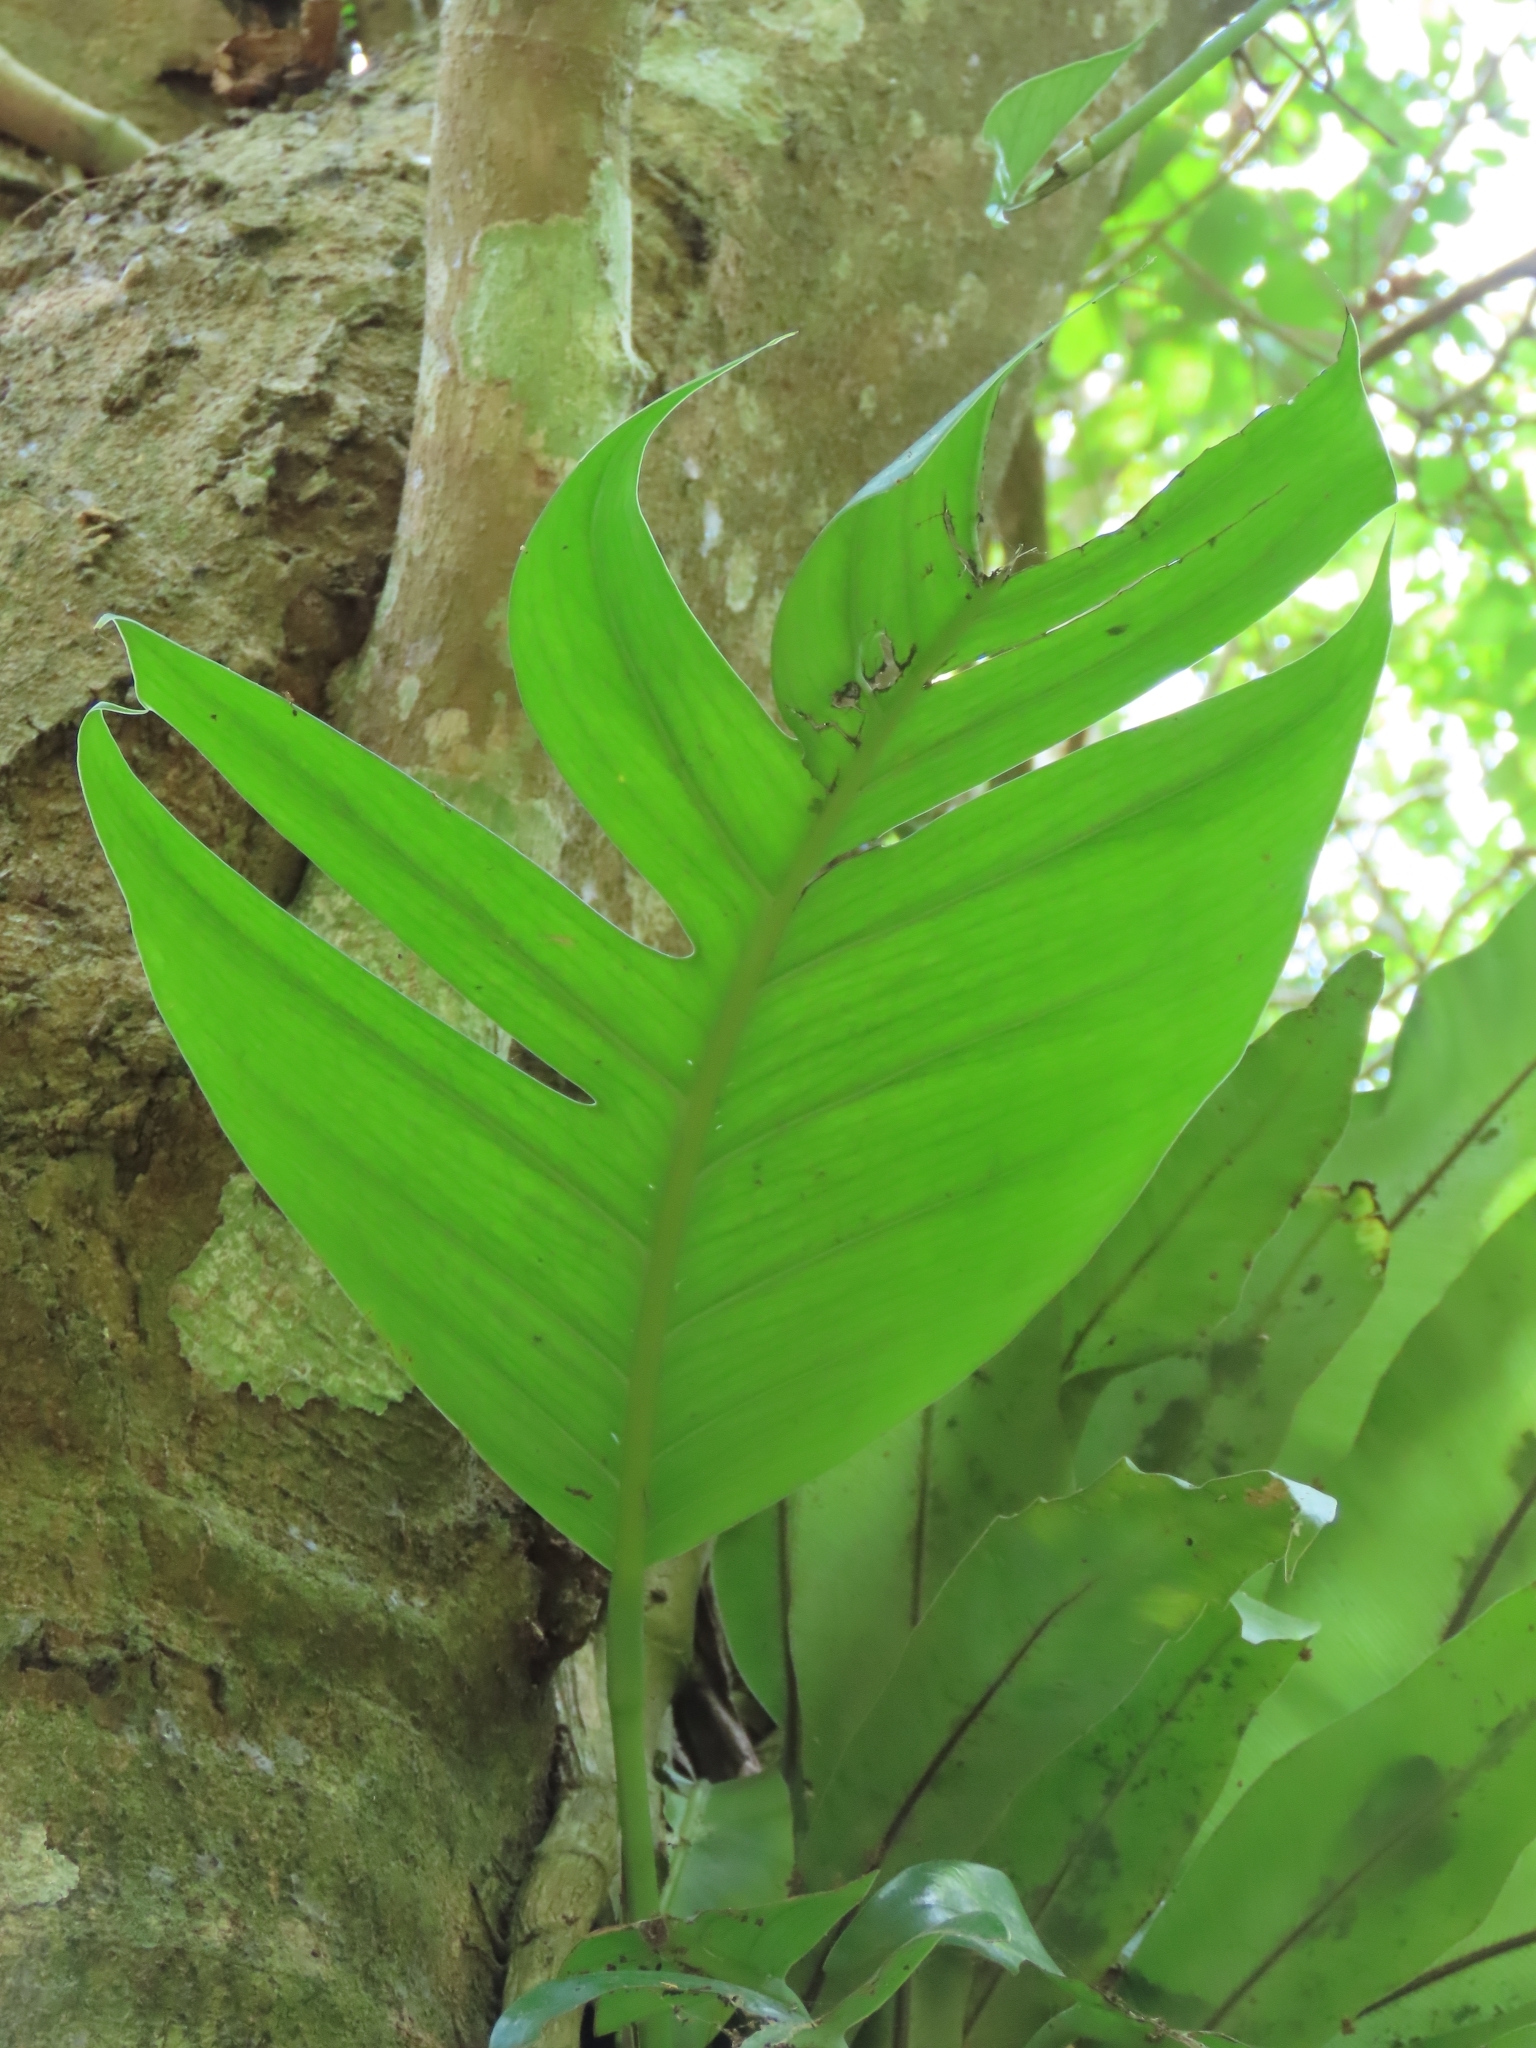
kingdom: Plantae
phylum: Tracheophyta
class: Liliopsida
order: Alismatales
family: Araceae
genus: Epipremnum
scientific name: Epipremnum pinnatum
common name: Centipede tongavine
